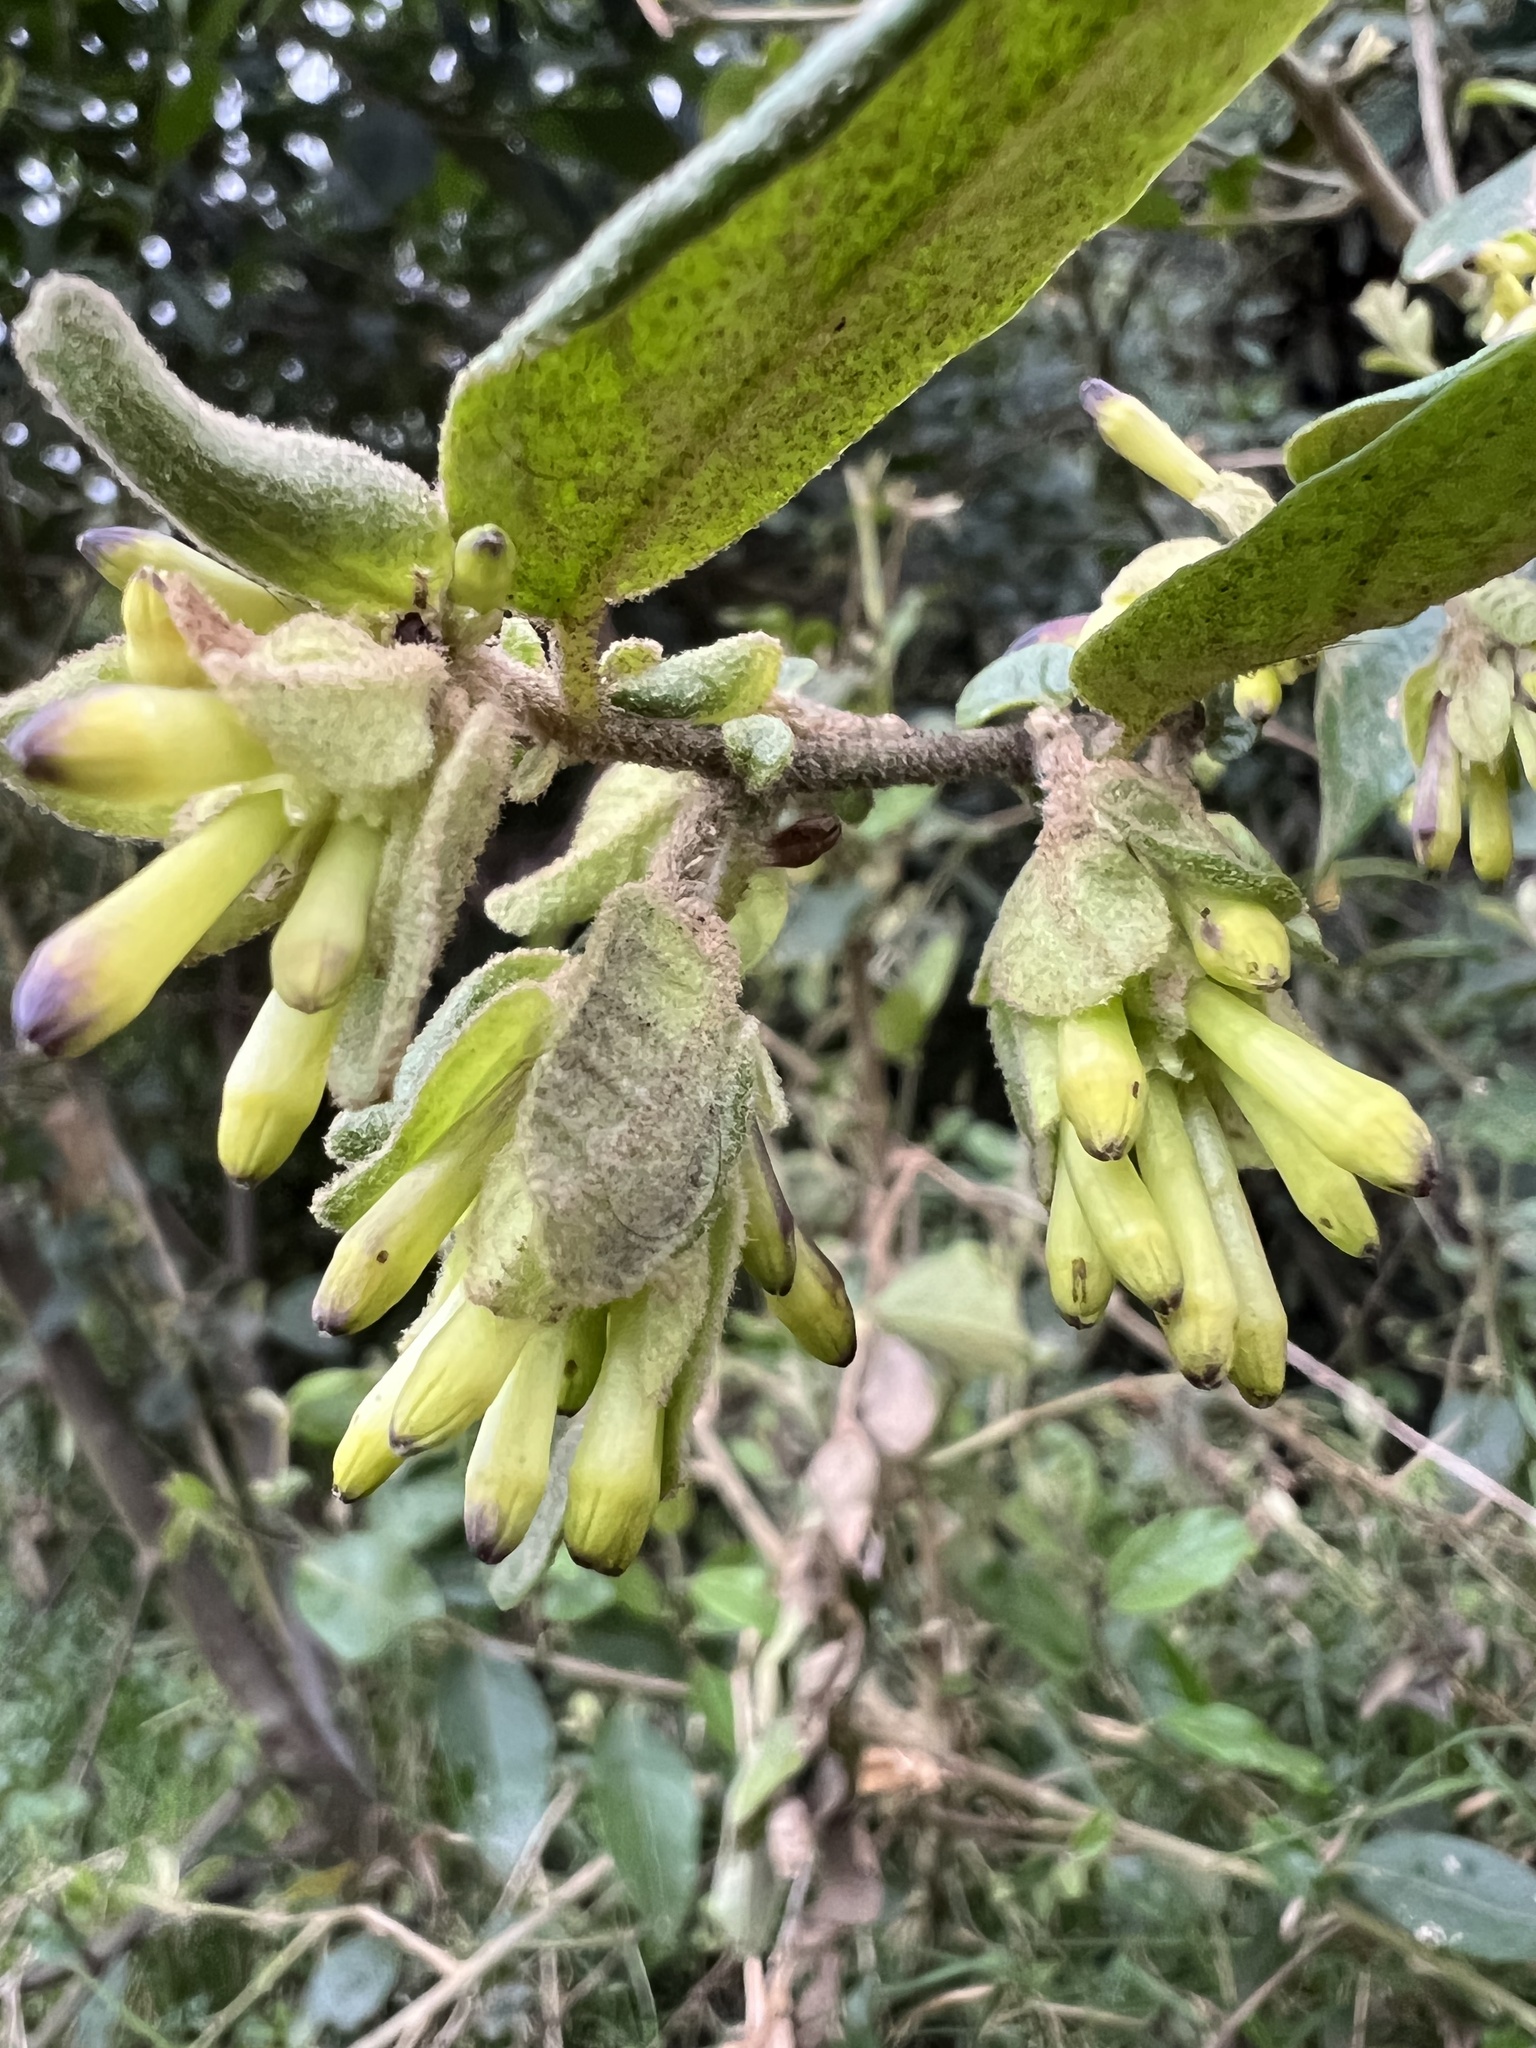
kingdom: Plantae
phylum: Tracheophyta
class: Magnoliopsida
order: Solanales
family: Solanaceae
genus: Cestrum
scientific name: Cestrum tomentosum
